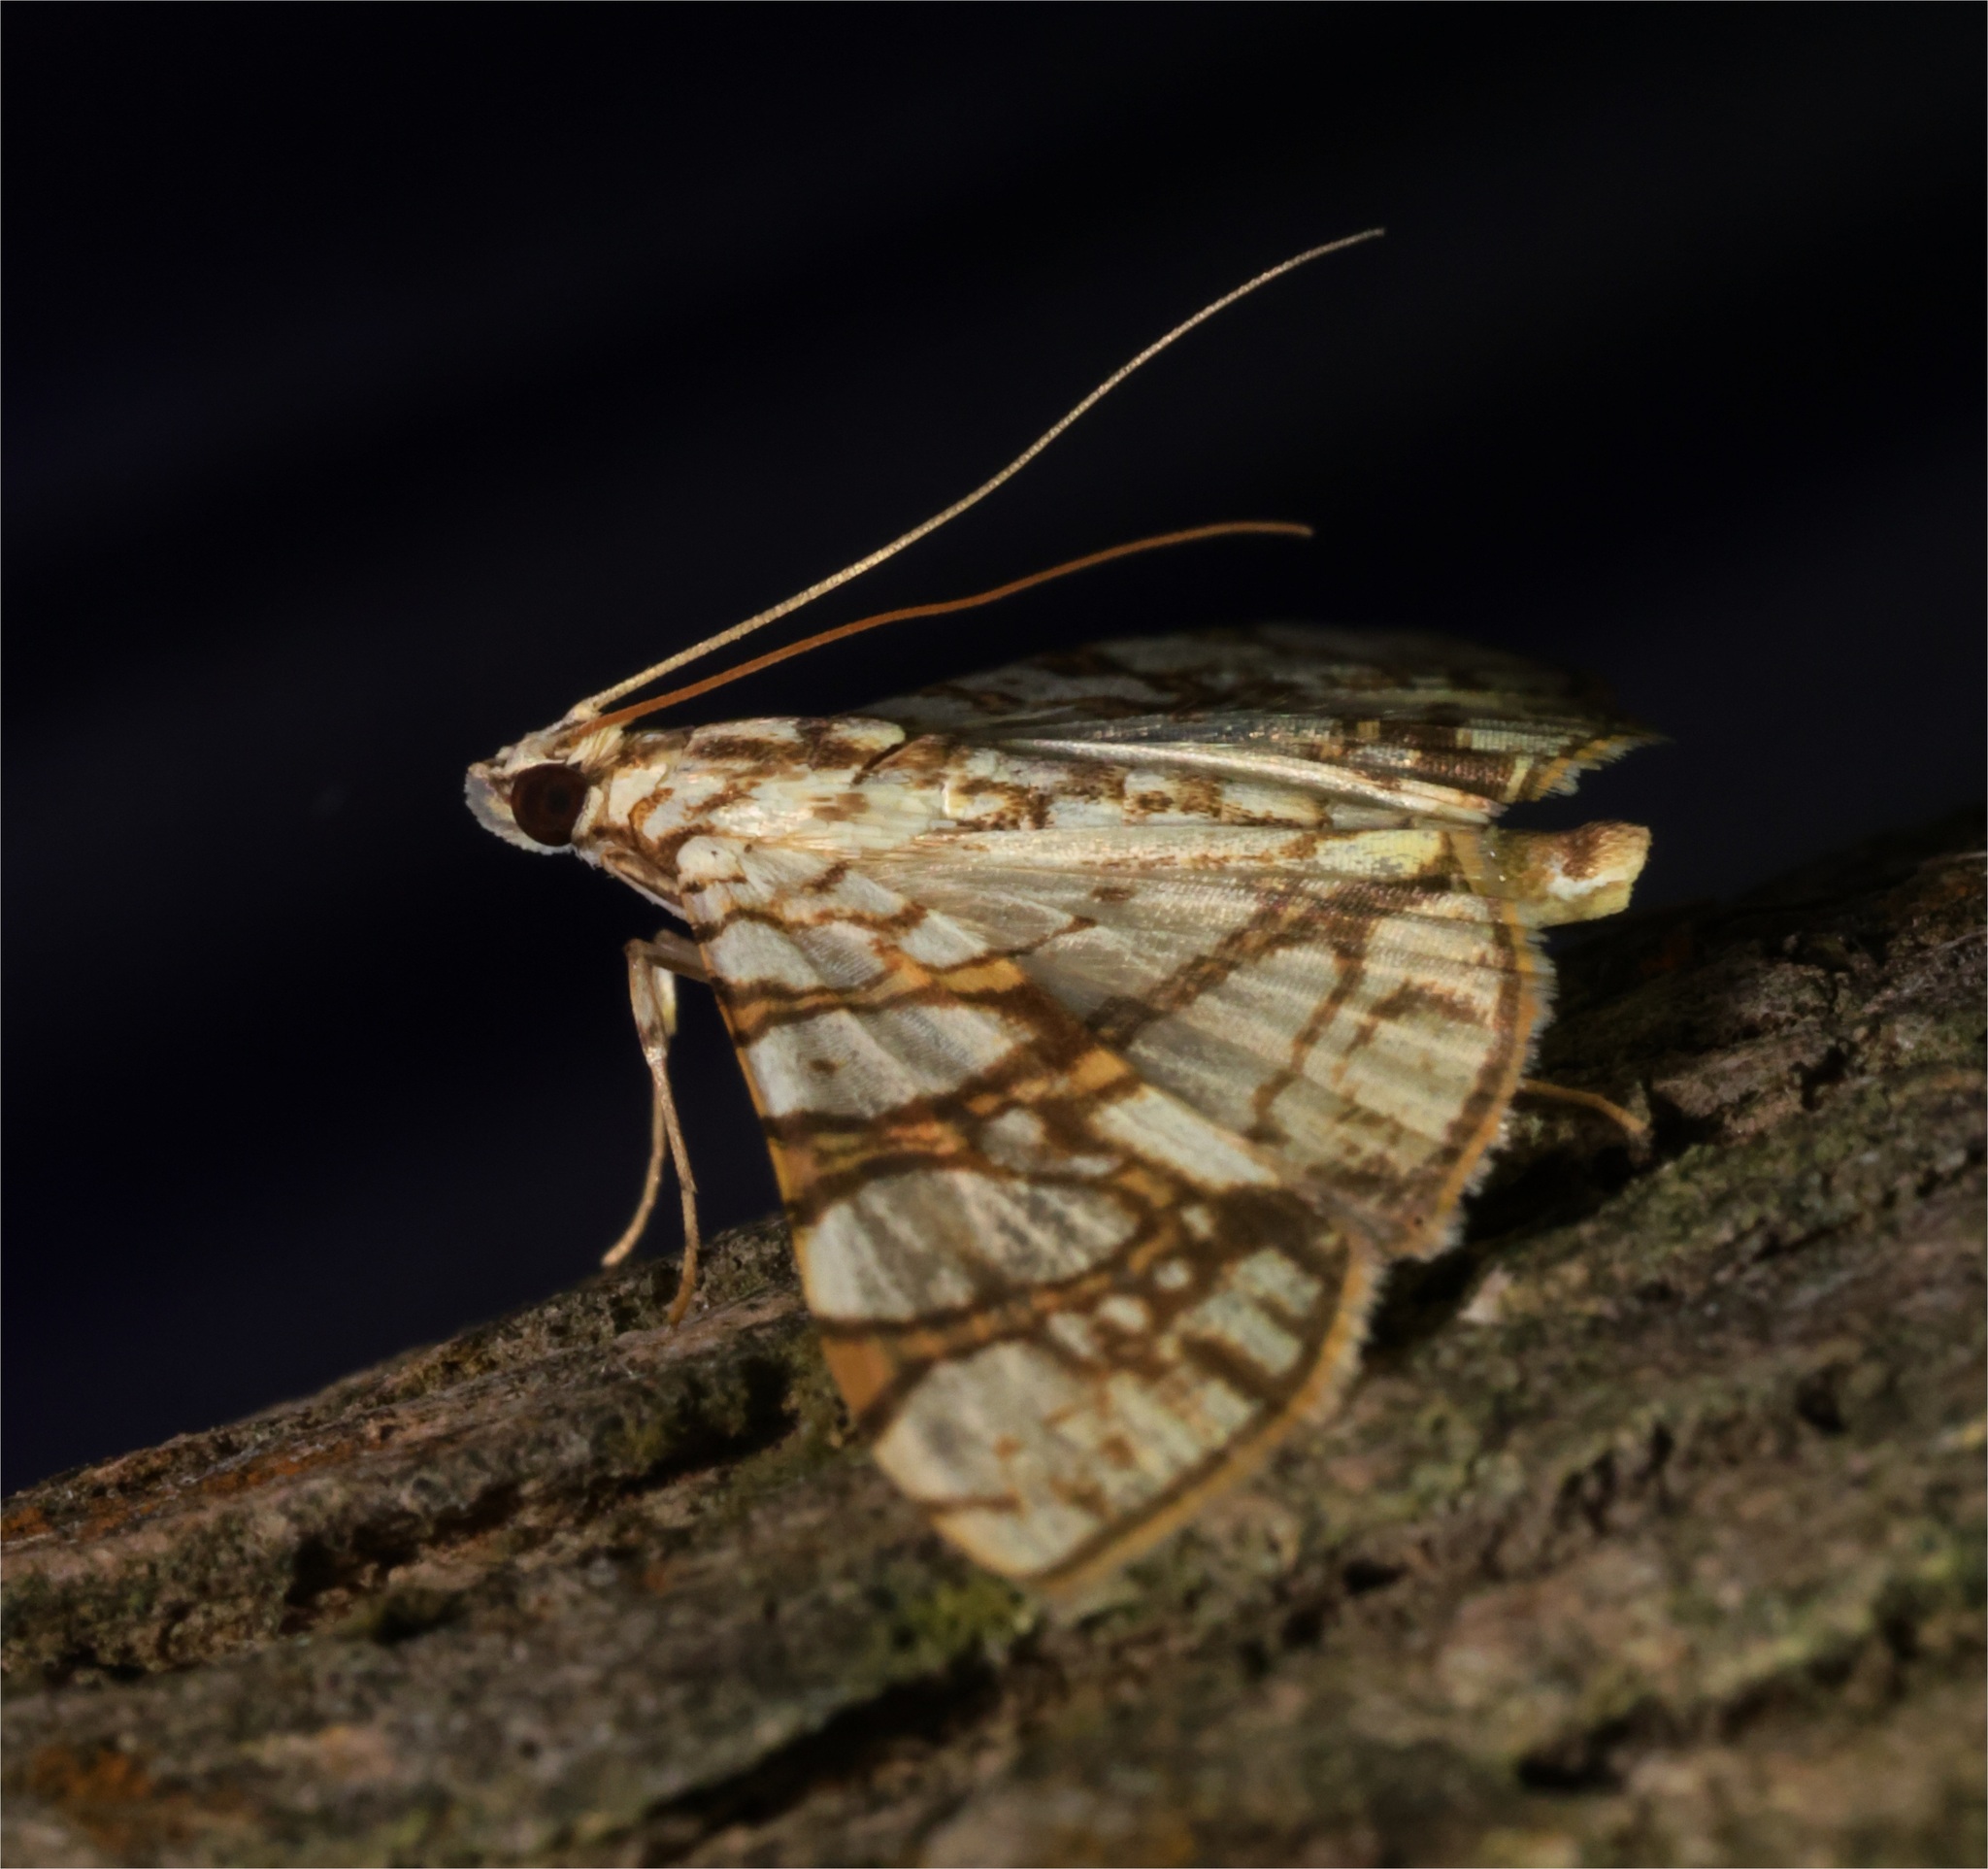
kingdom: Animalia
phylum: Arthropoda
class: Insecta
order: Lepidoptera
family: Crambidae
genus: Glyphodes
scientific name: Glyphodes caesalis
